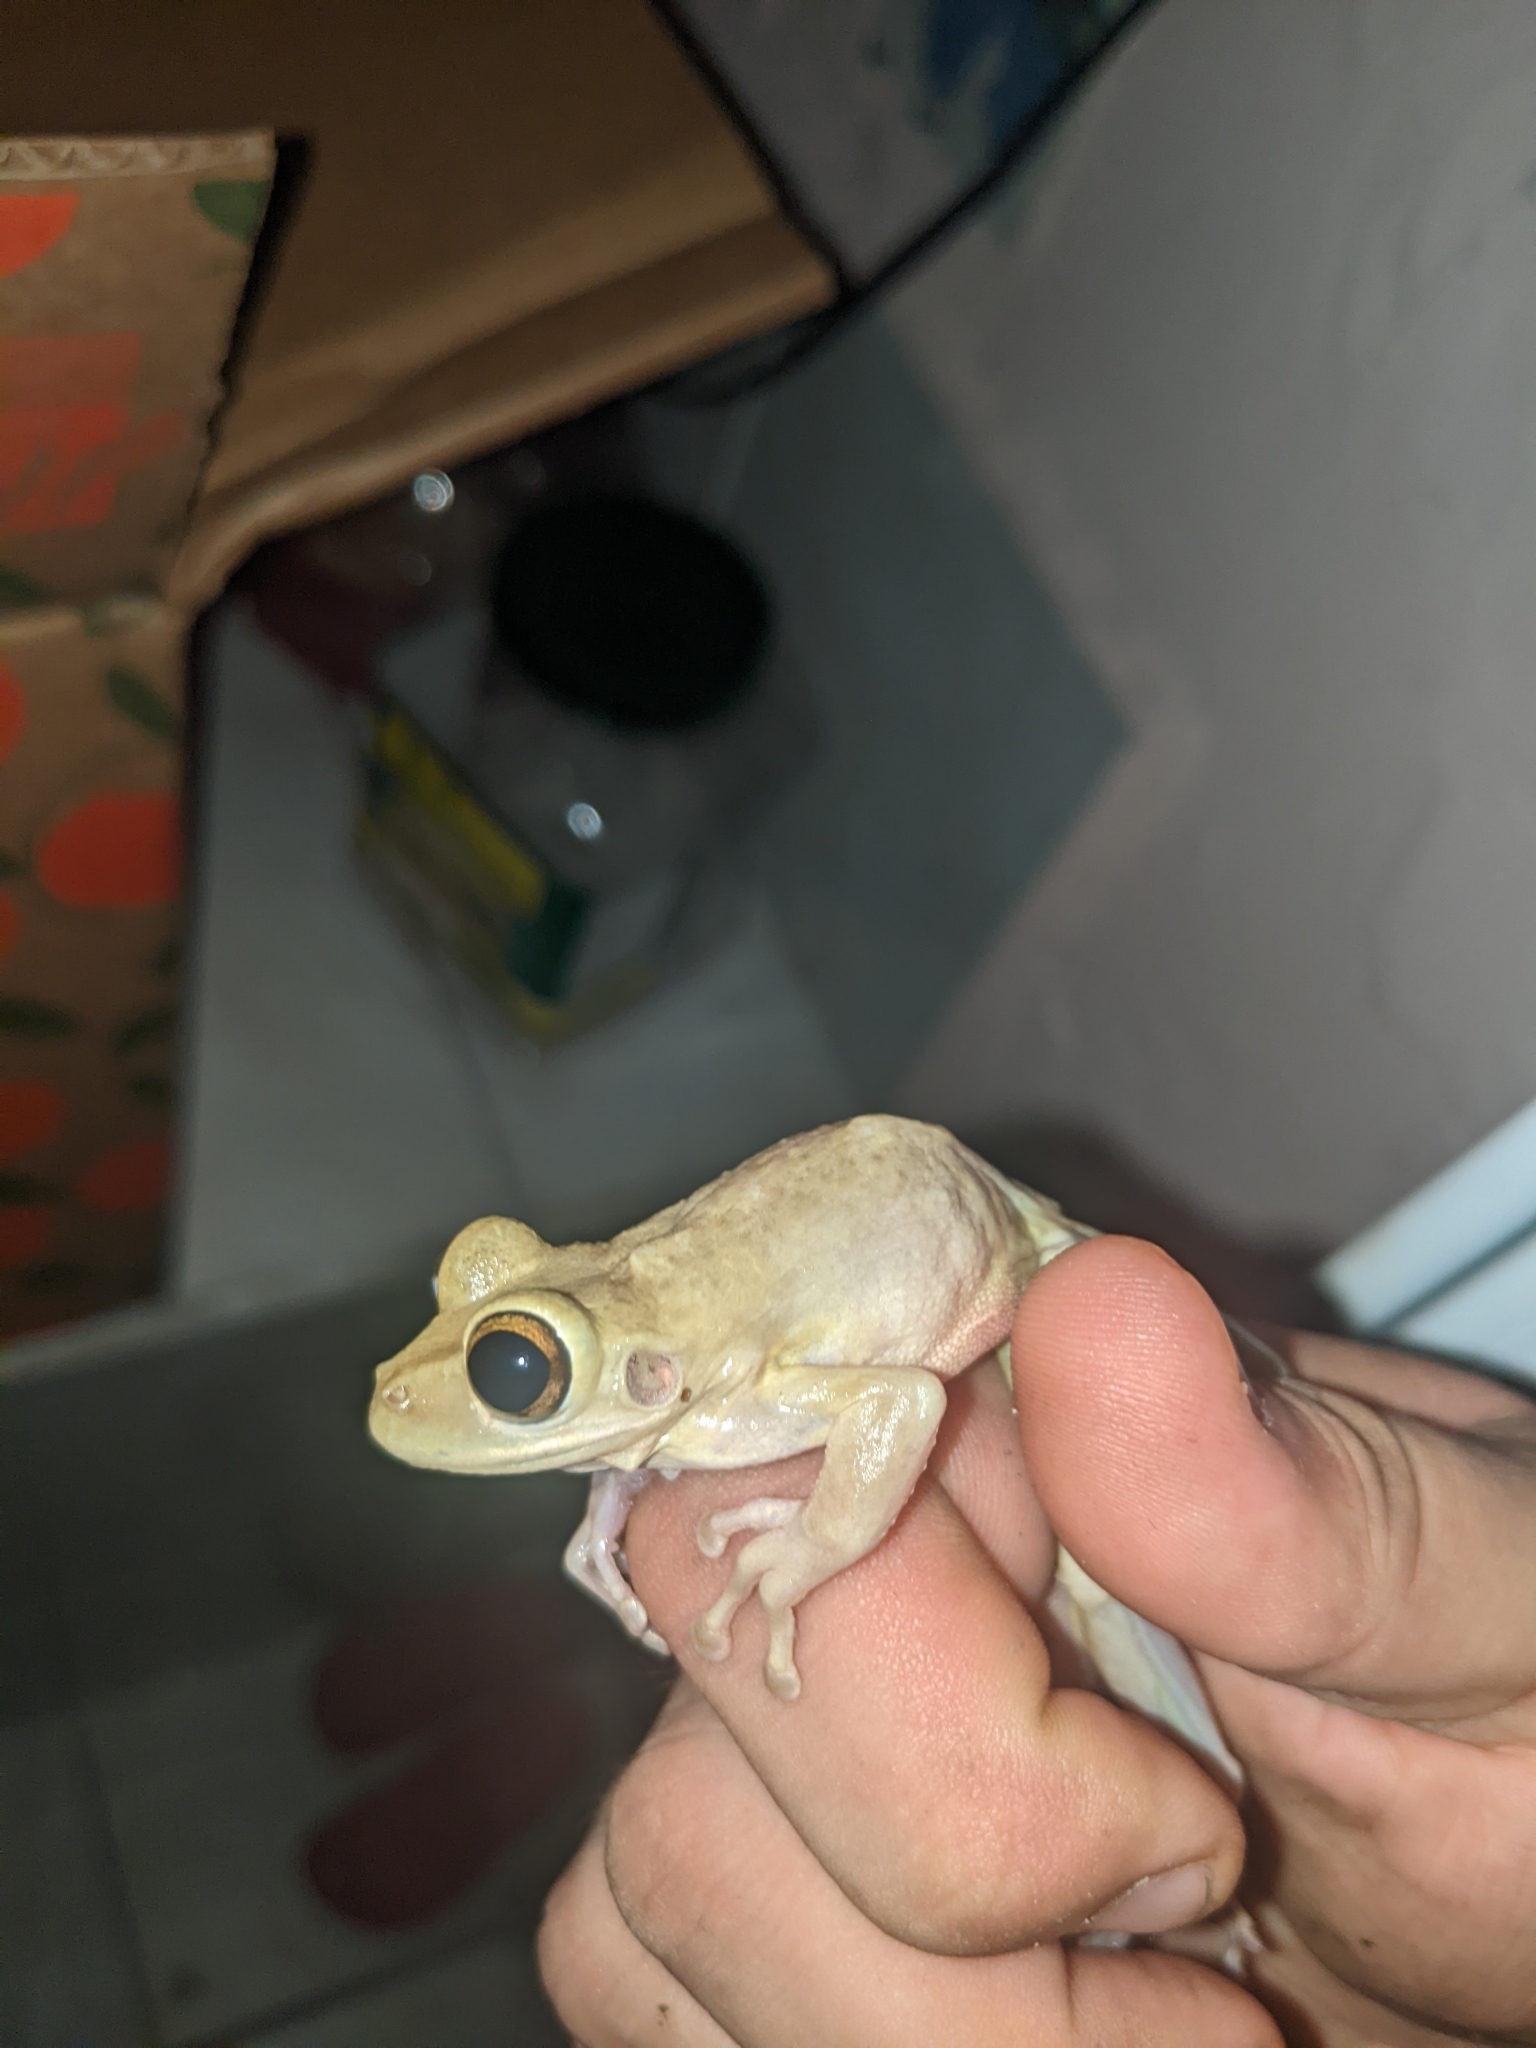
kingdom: Animalia
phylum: Chordata
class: Amphibia
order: Anura
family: Hylidae
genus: Osteopilus
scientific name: Osteopilus septentrionalis
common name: Cuban treefrog
